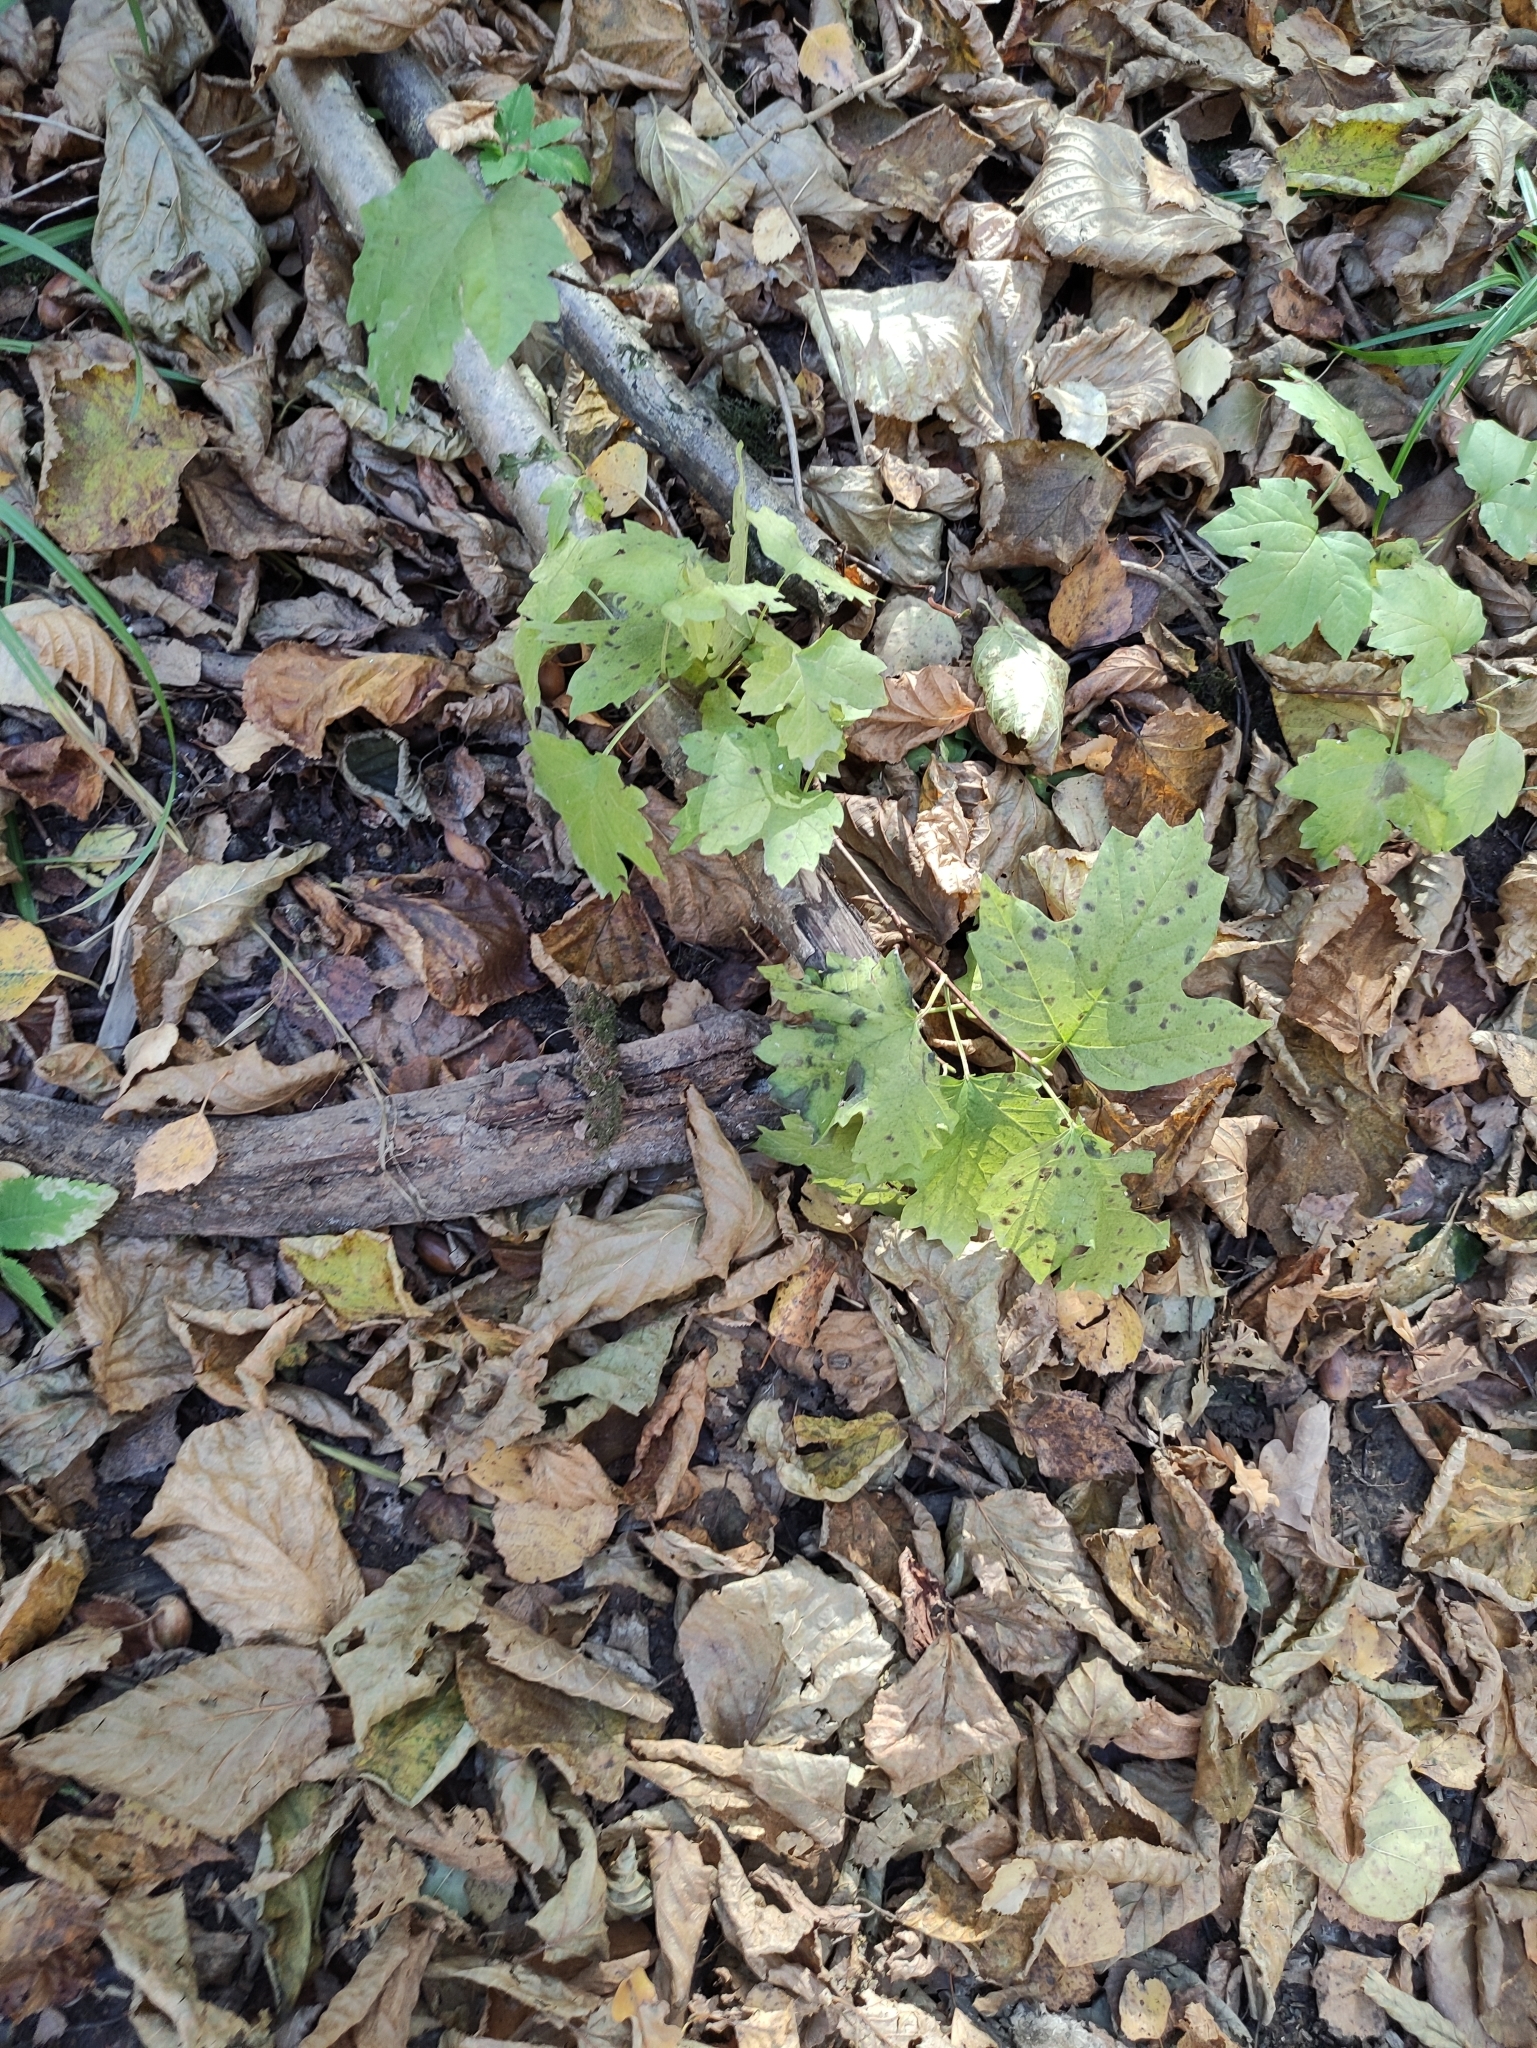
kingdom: Plantae
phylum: Tracheophyta
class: Magnoliopsida
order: Dipsacales
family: Viburnaceae
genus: Viburnum
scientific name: Viburnum opulus
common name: Guelder-rose
